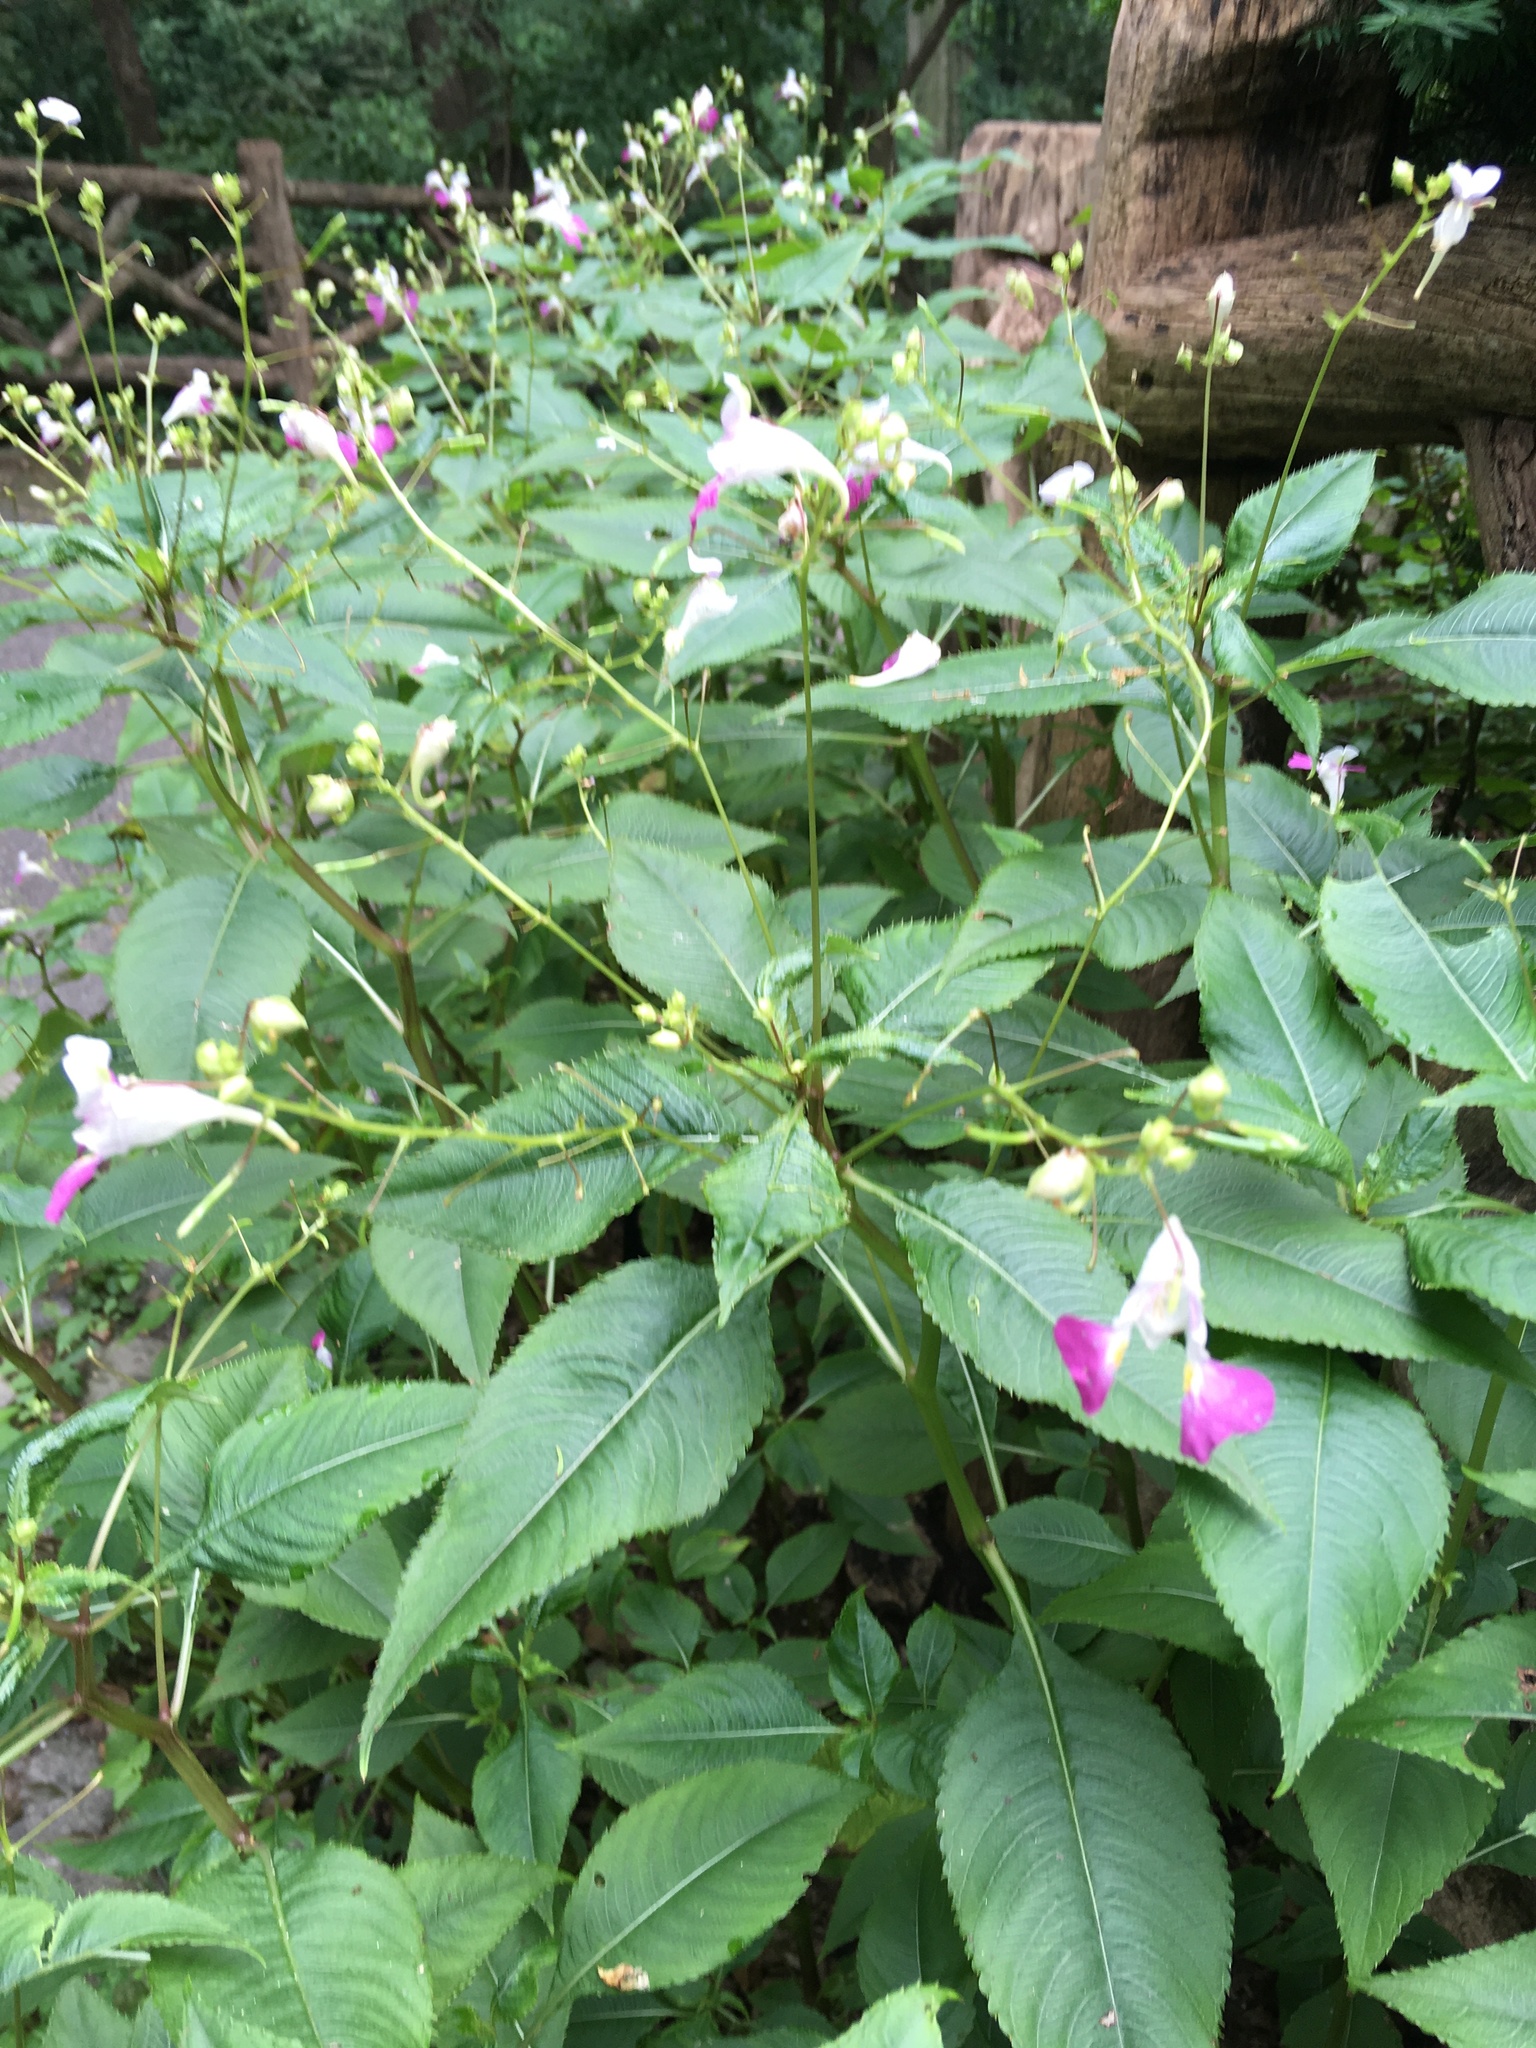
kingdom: Plantae
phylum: Tracheophyta
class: Magnoliopsida
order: Ericales
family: Balsaminaceae
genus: Impatiens
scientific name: Impatiens balfourii
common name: Balfour's touch-me-not
